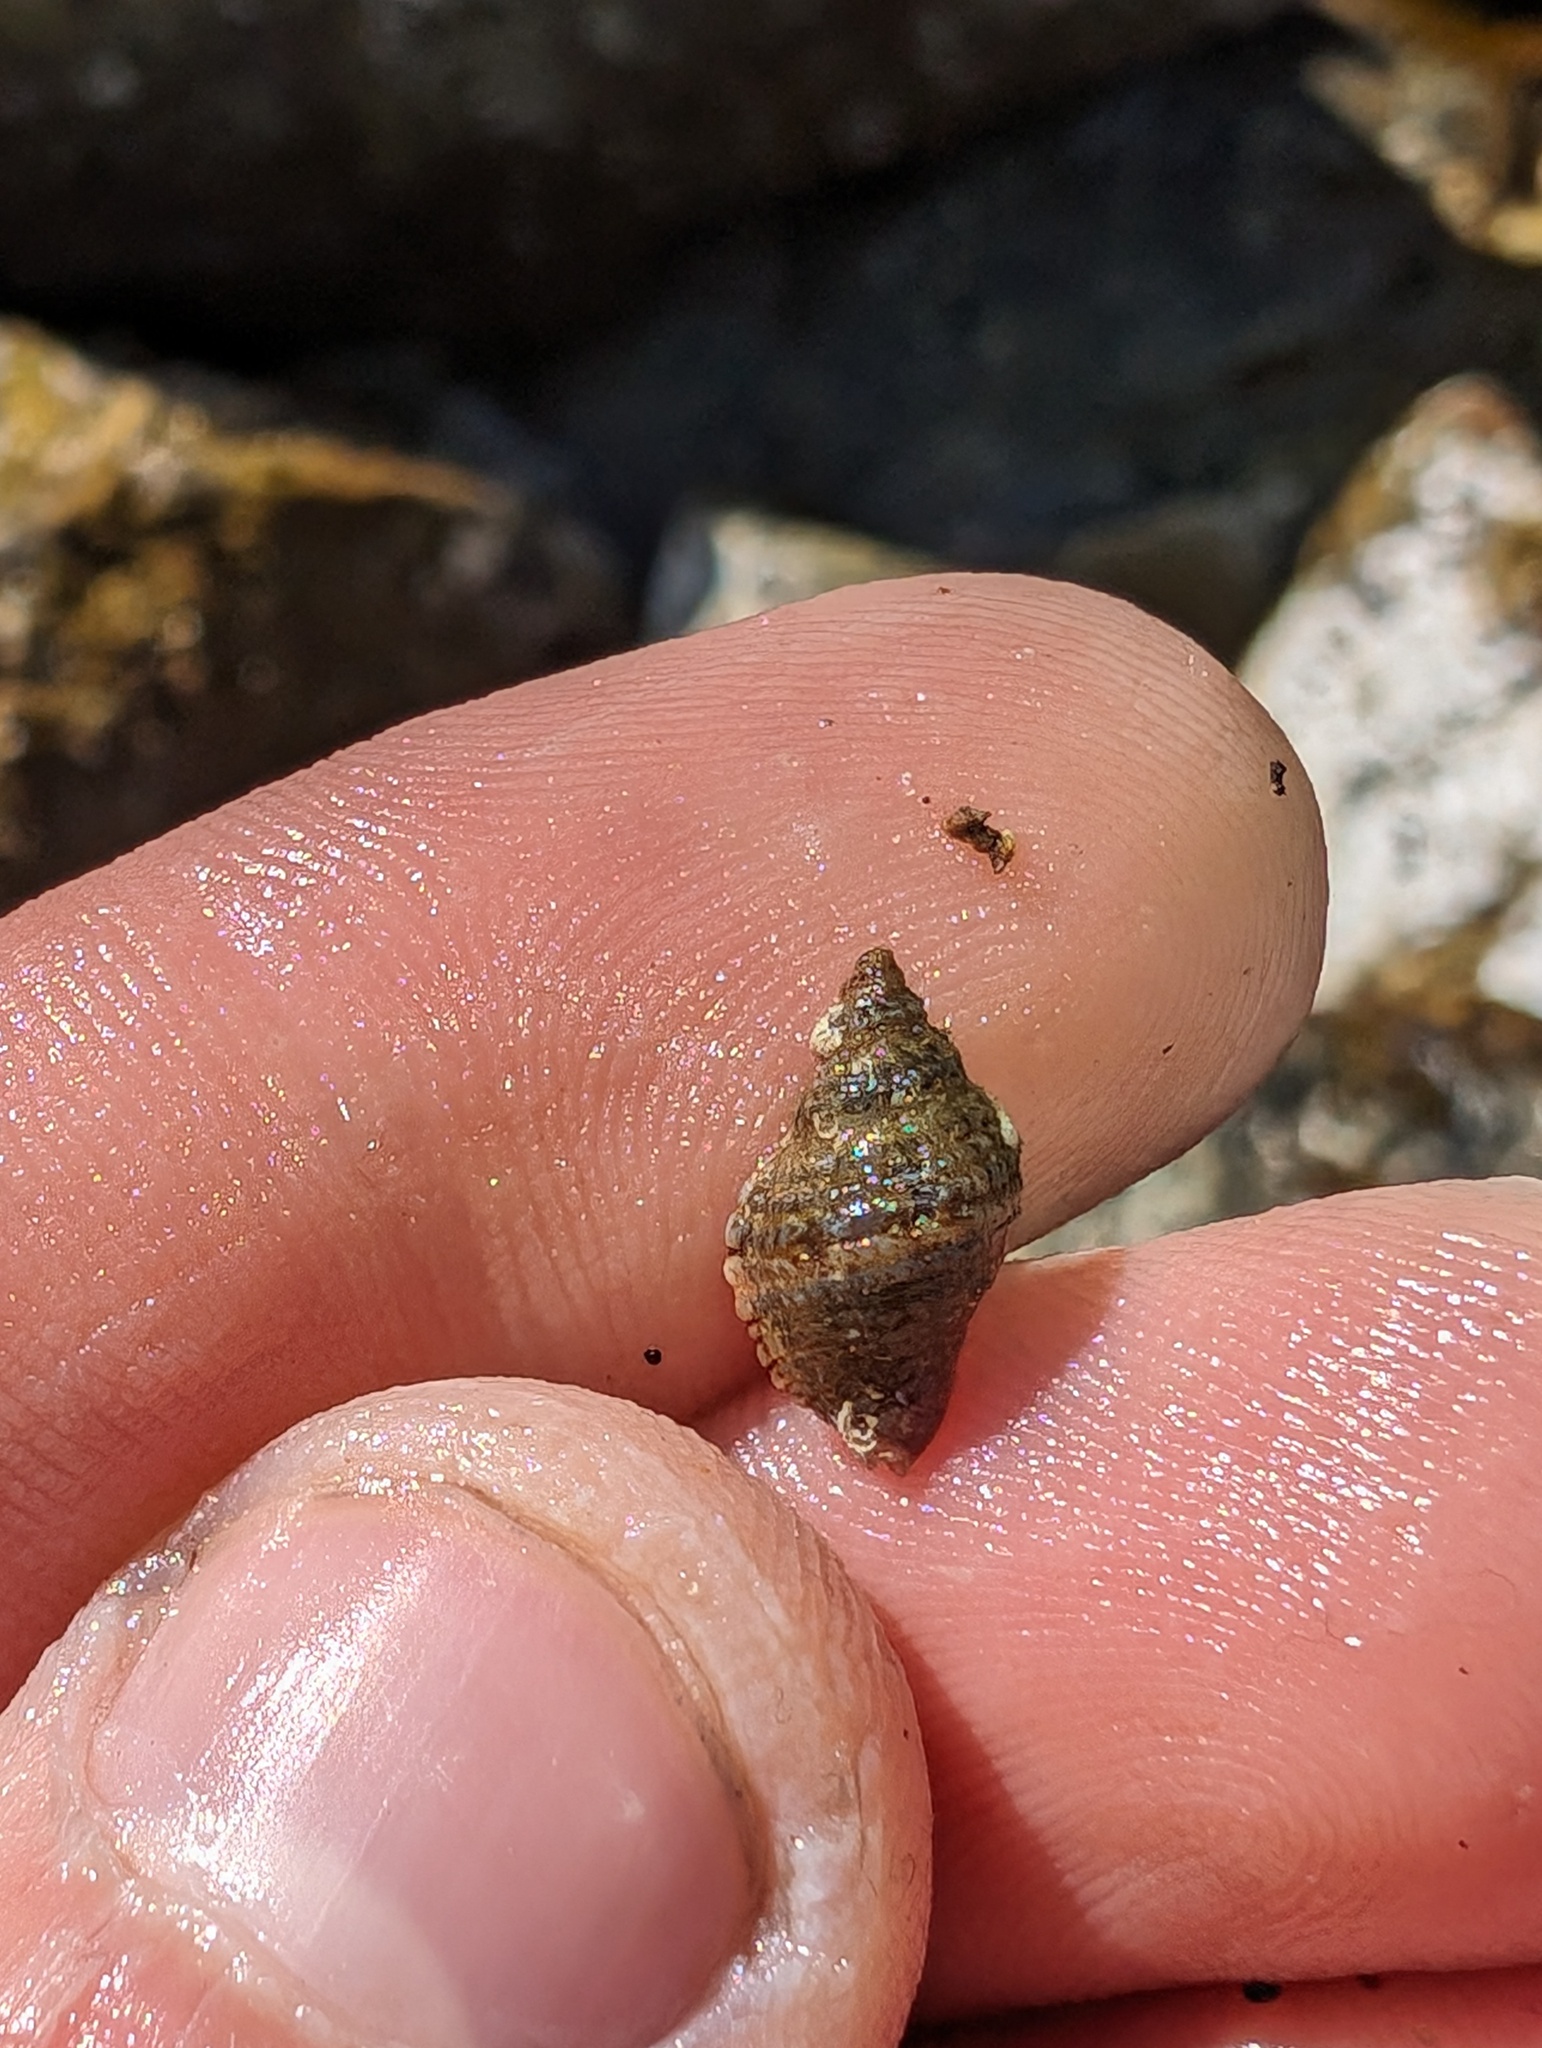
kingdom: Animalia
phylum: Mollusca
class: Gastropoda
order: Neogastropoda
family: Muricidae
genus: Paciocinebrina
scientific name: Paciocinebrina gracillima
